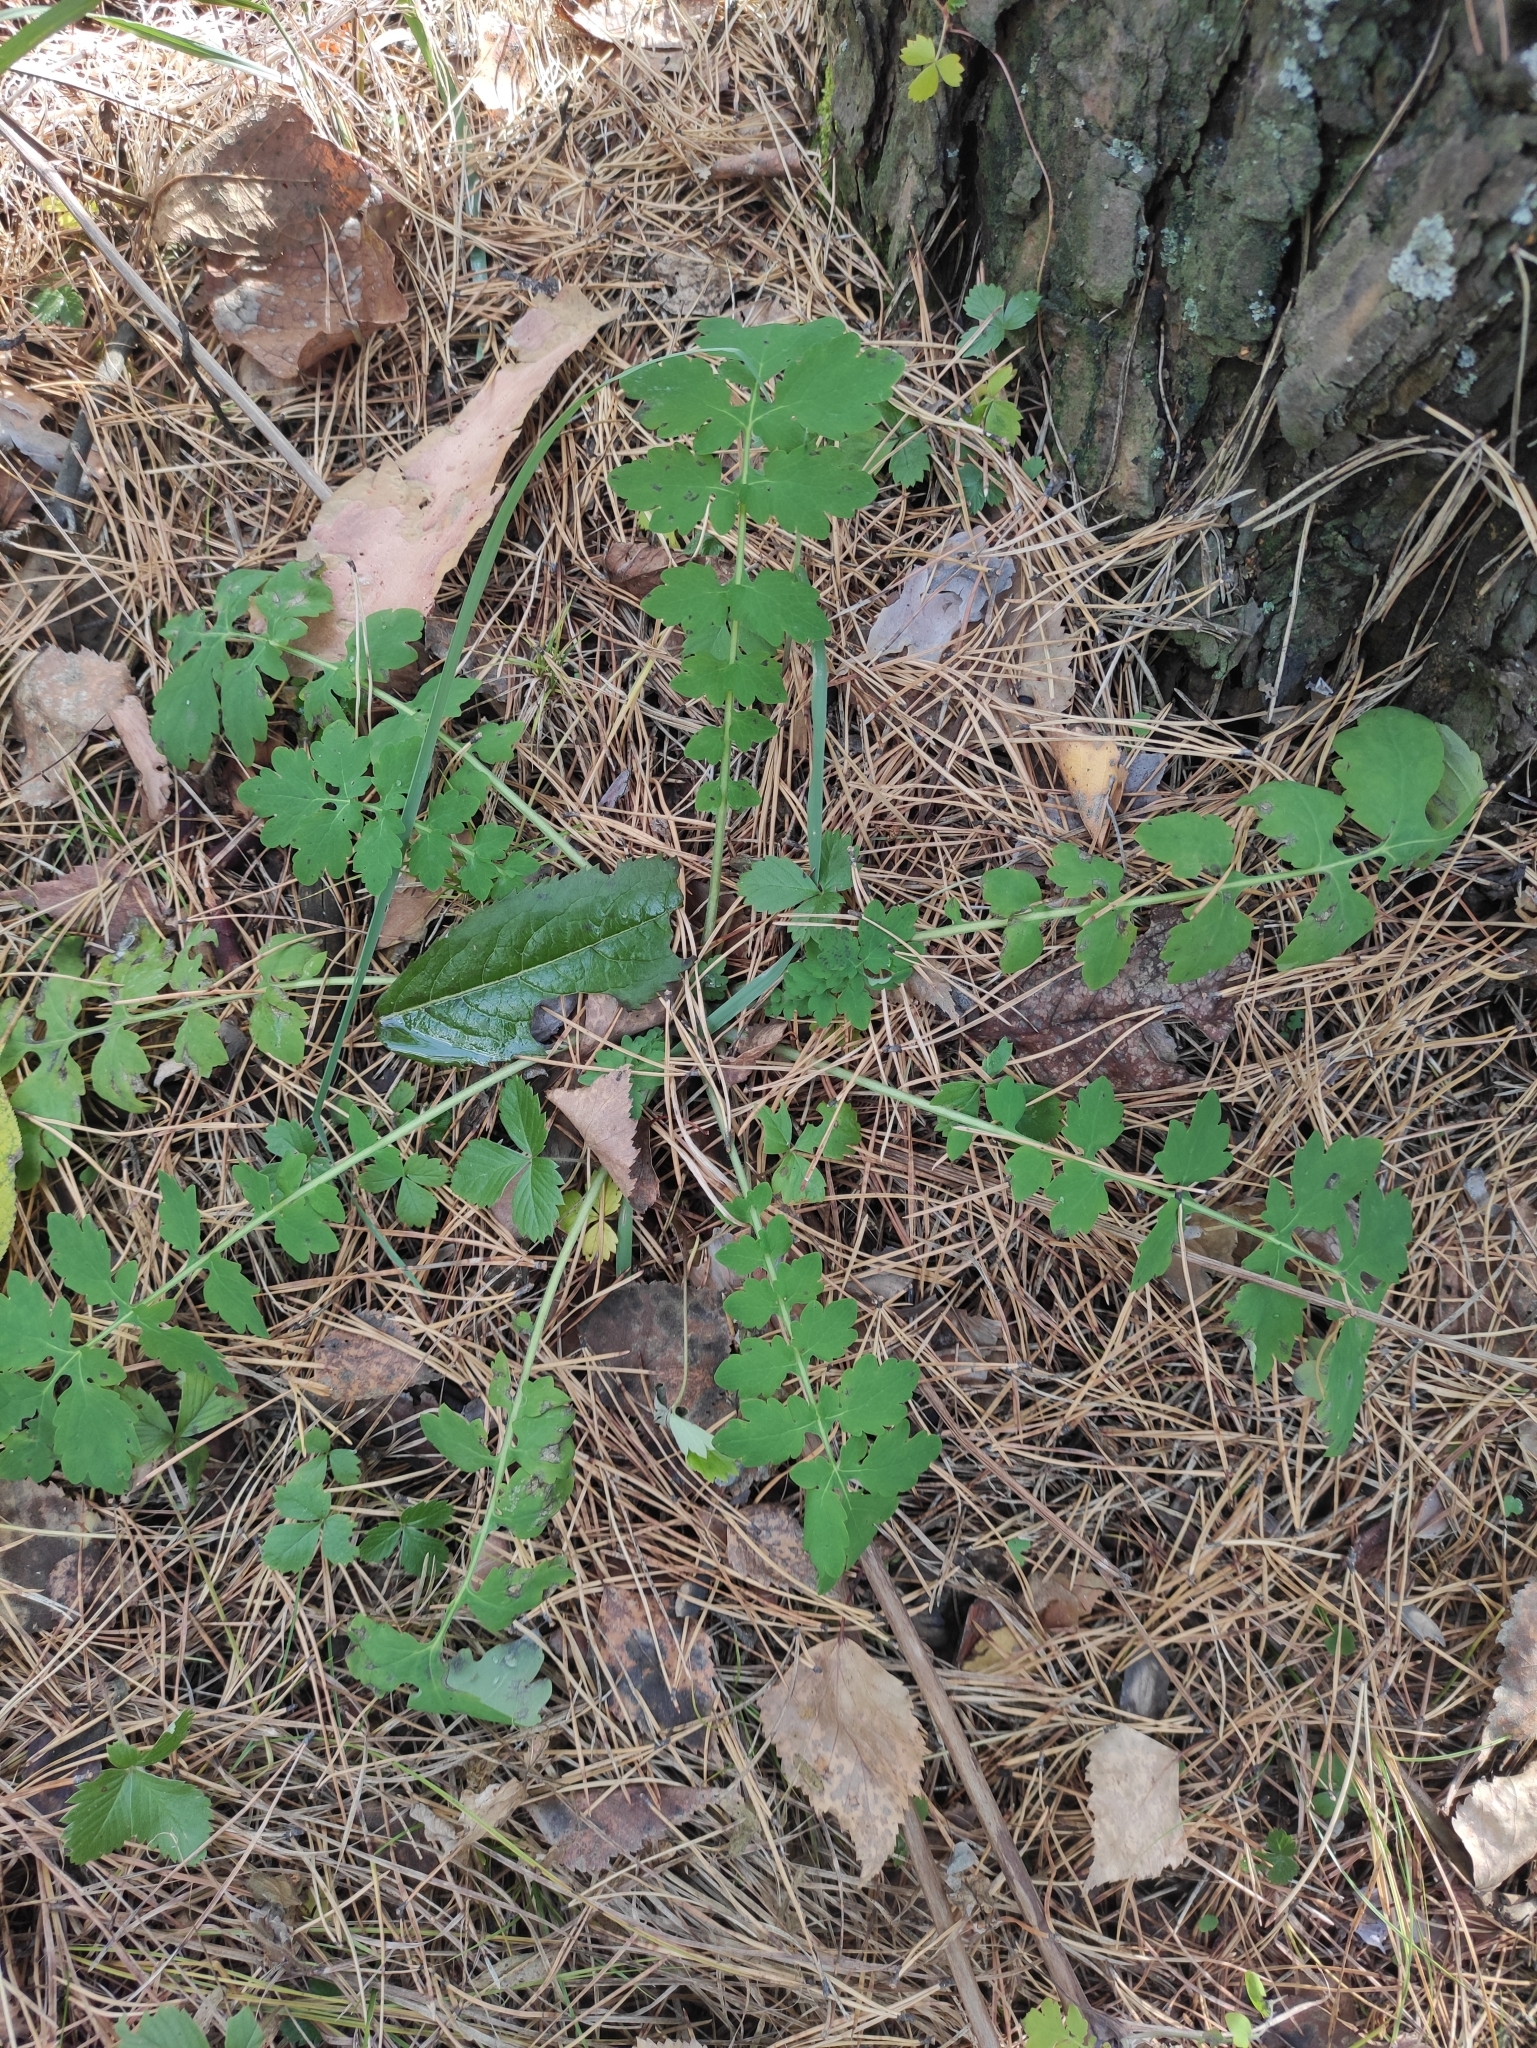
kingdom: Plantae
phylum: Tracheophyta
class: Magnoliopsida
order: Ranunculales
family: Papaveraceae
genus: Chelidonium
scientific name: Chelidonium majus
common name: Greater celandine
